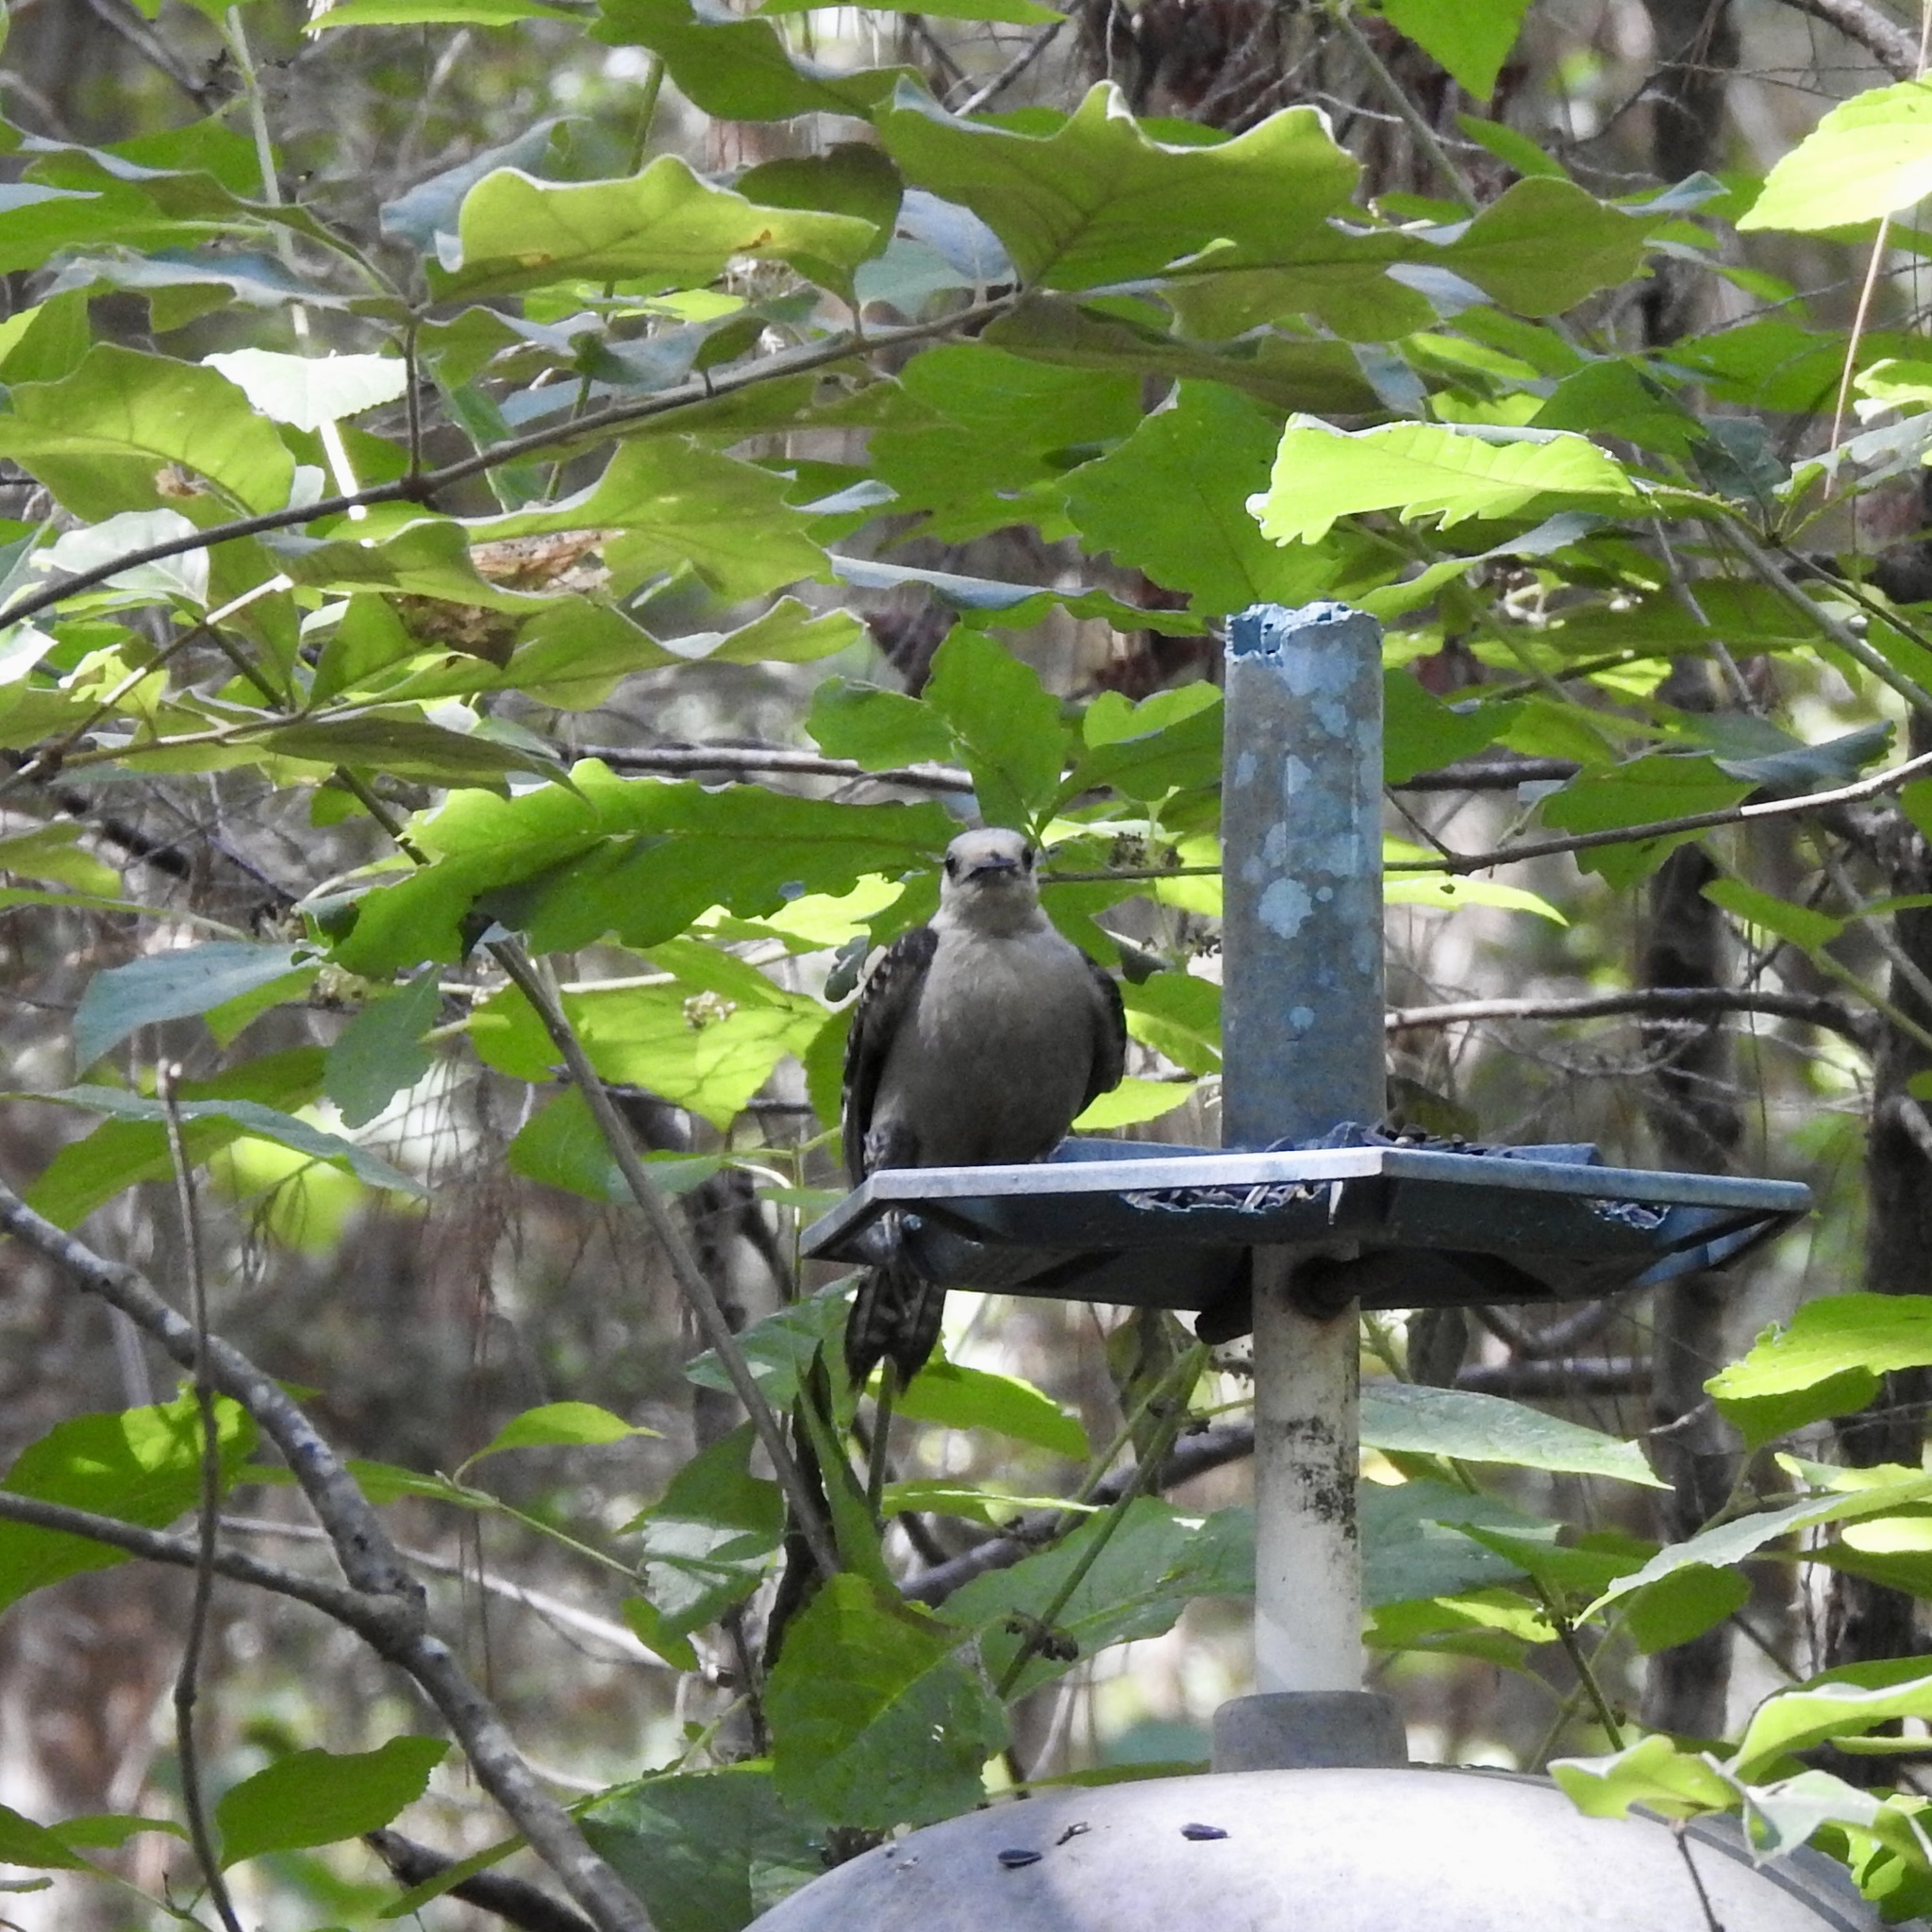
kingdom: Animalia
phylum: Chordata
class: Aves
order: Piciformes
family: Picidae
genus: Melanerpes
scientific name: Melanerpes carolinus
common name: Red-bellied woodpecker
